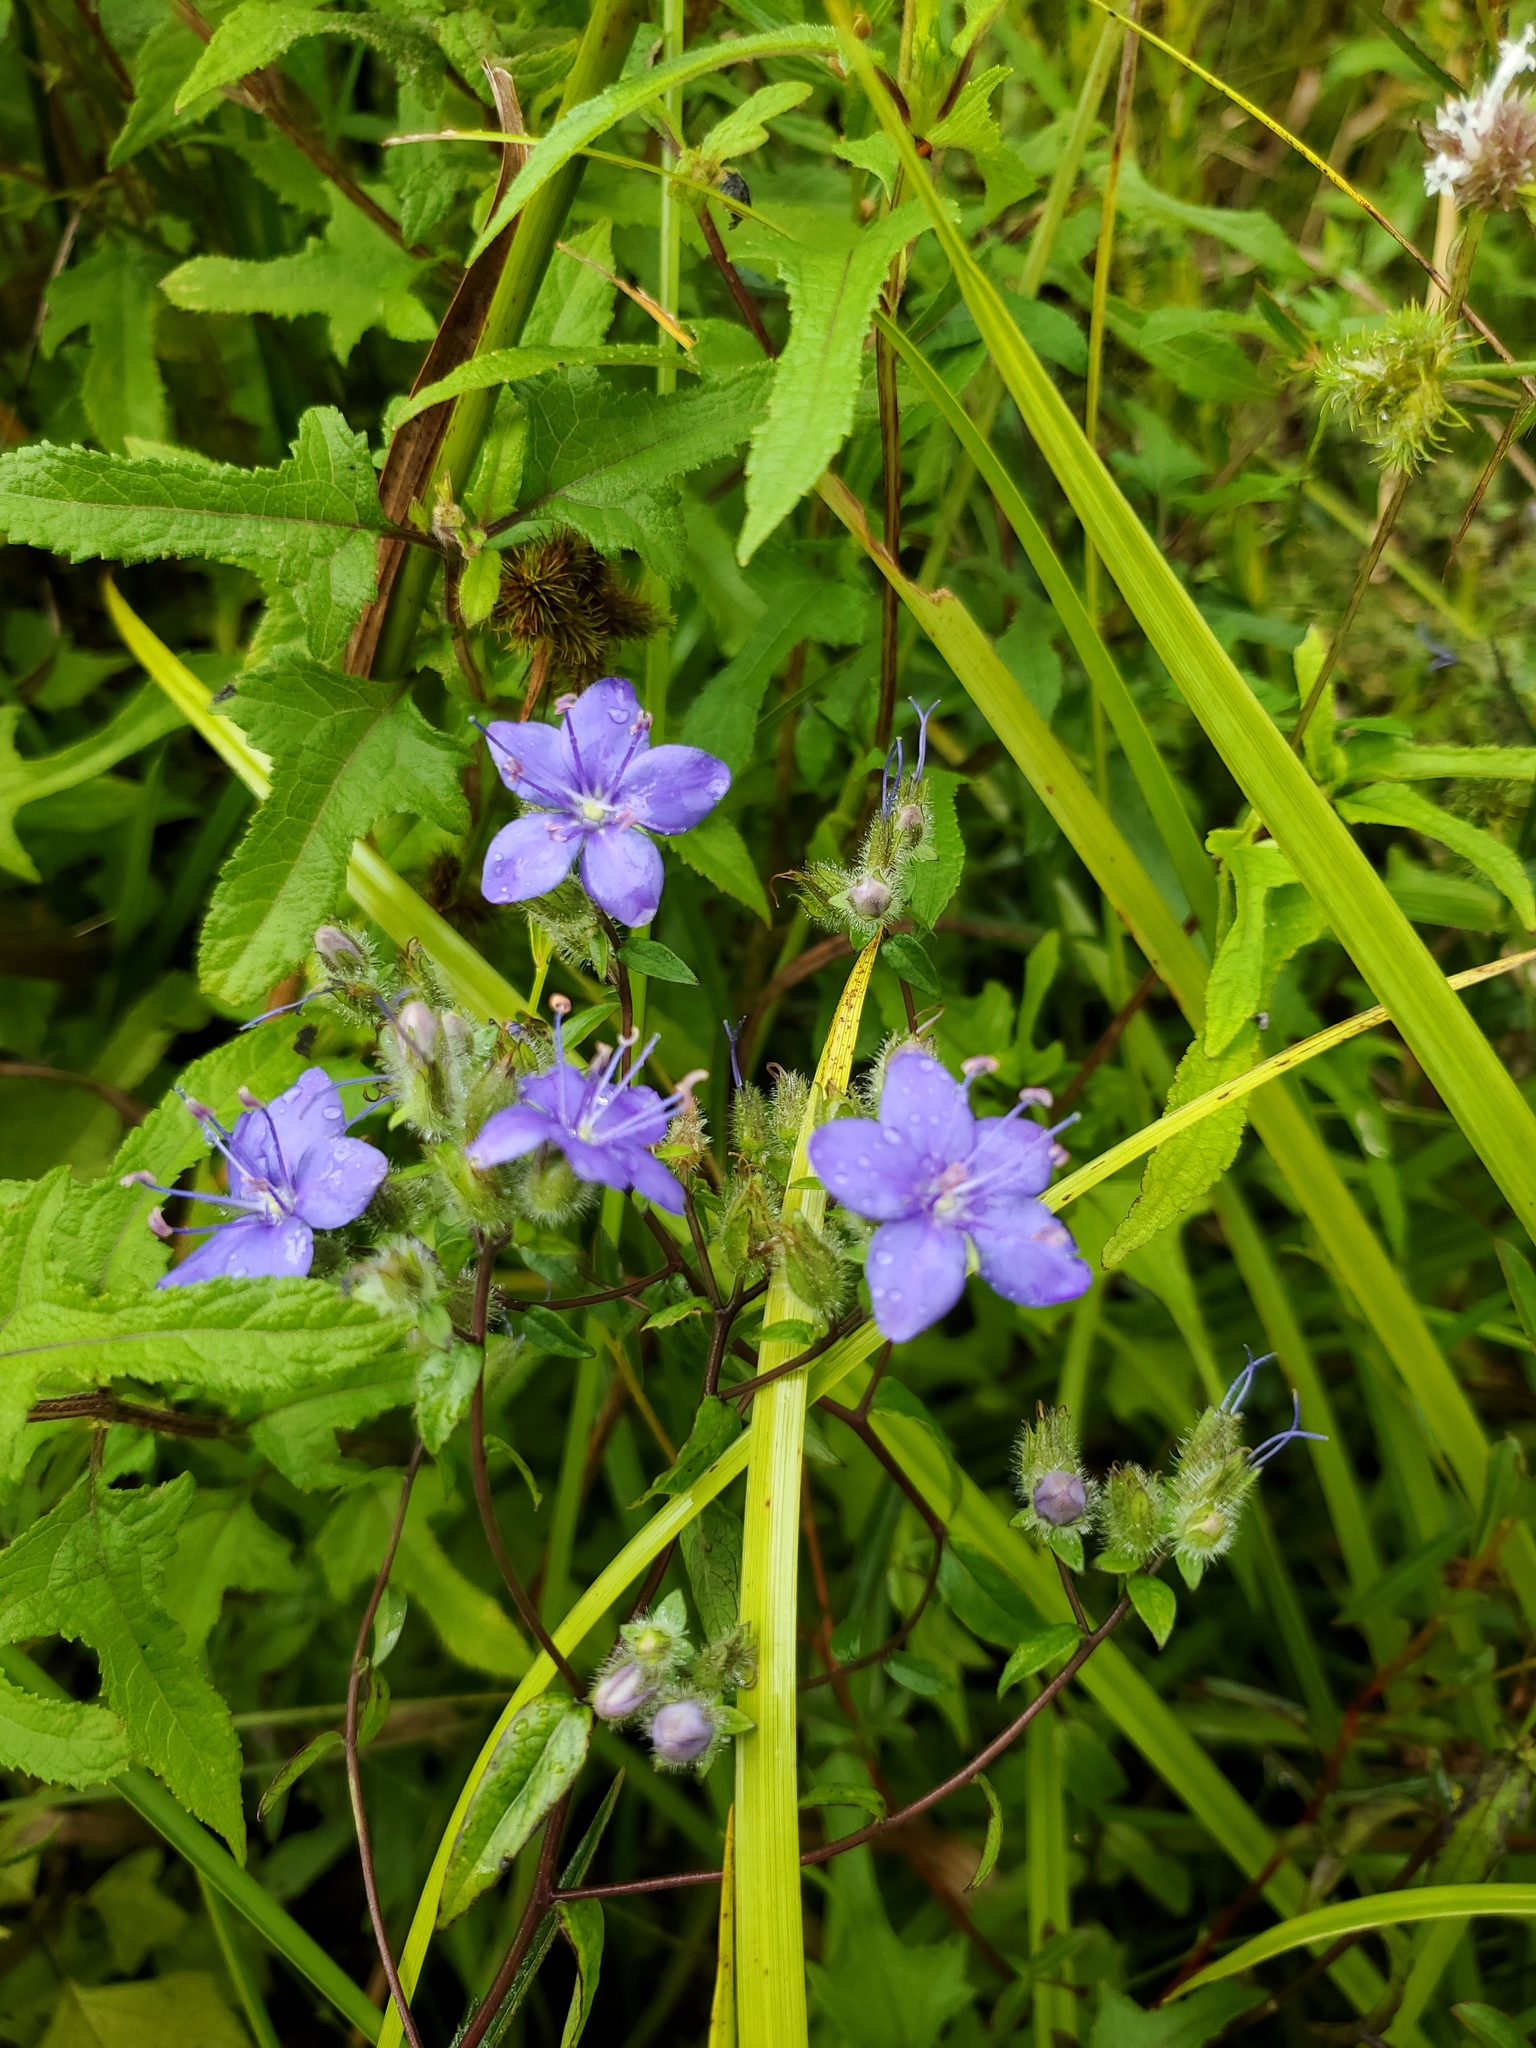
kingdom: Plantae
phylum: Tracheophyta
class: Magnoliopsida
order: Solanales
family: Hydroleaceae
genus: Hydrolea
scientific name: Hydrolea corymbosa
